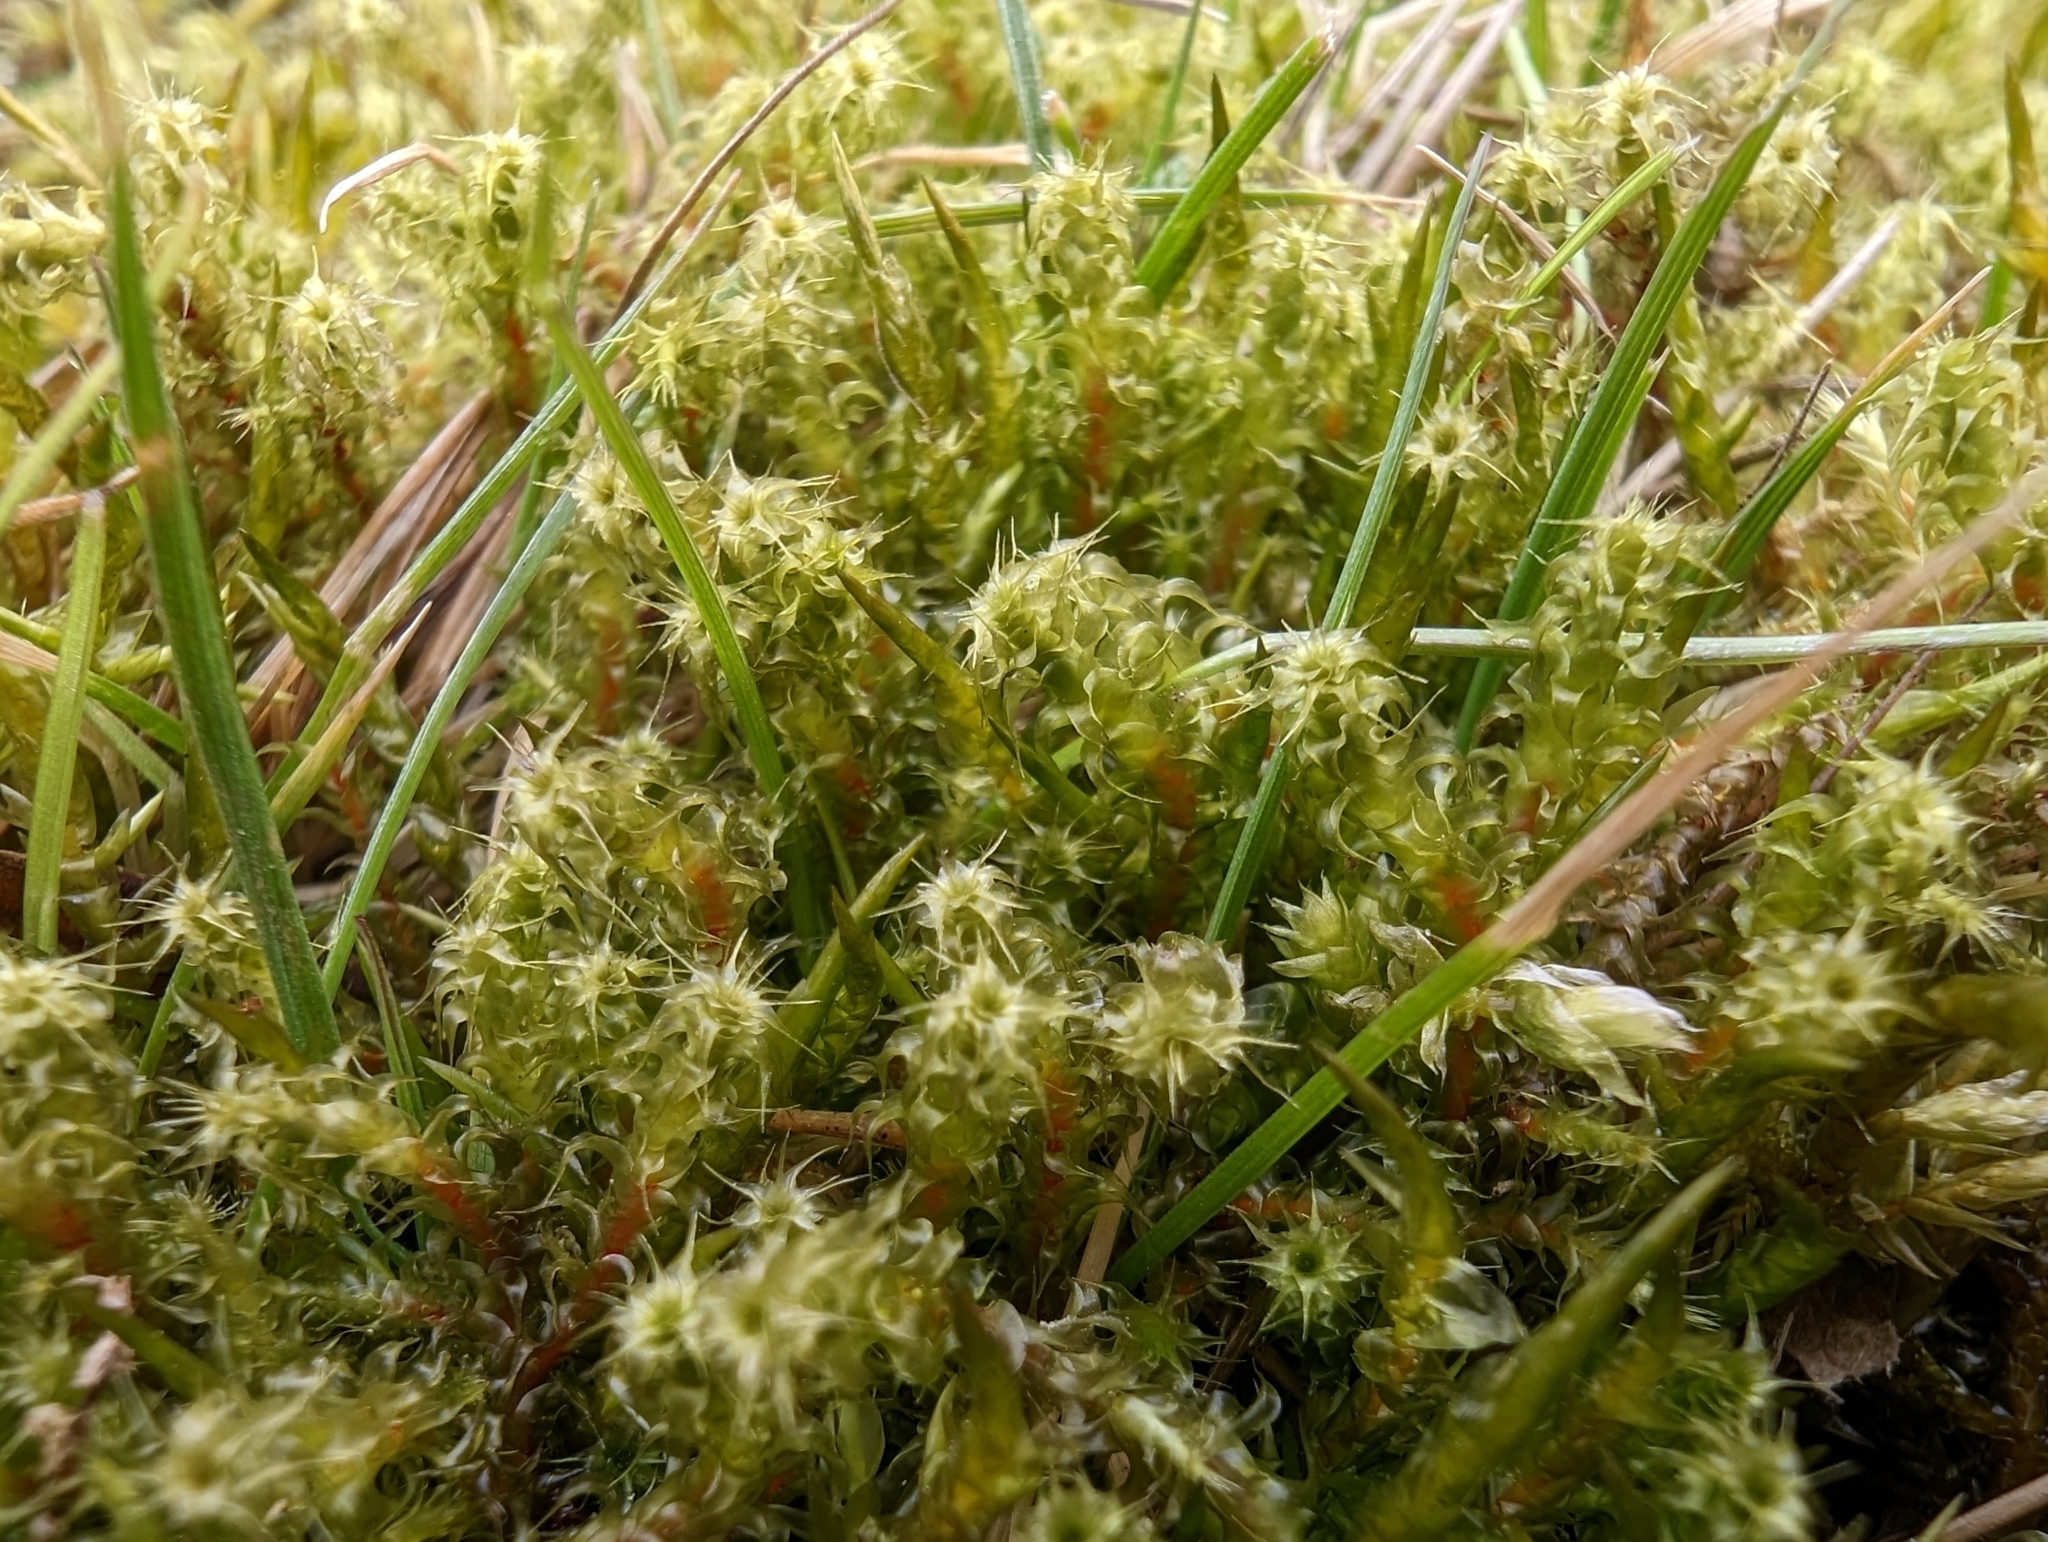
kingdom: Plantae
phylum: Bryophyta
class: Bryopsida
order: Hypnales
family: Hylocomiaceae
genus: Rhytidiadelphus
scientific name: Rhytidiadelphus squarrosus
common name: Springy turf-moss
